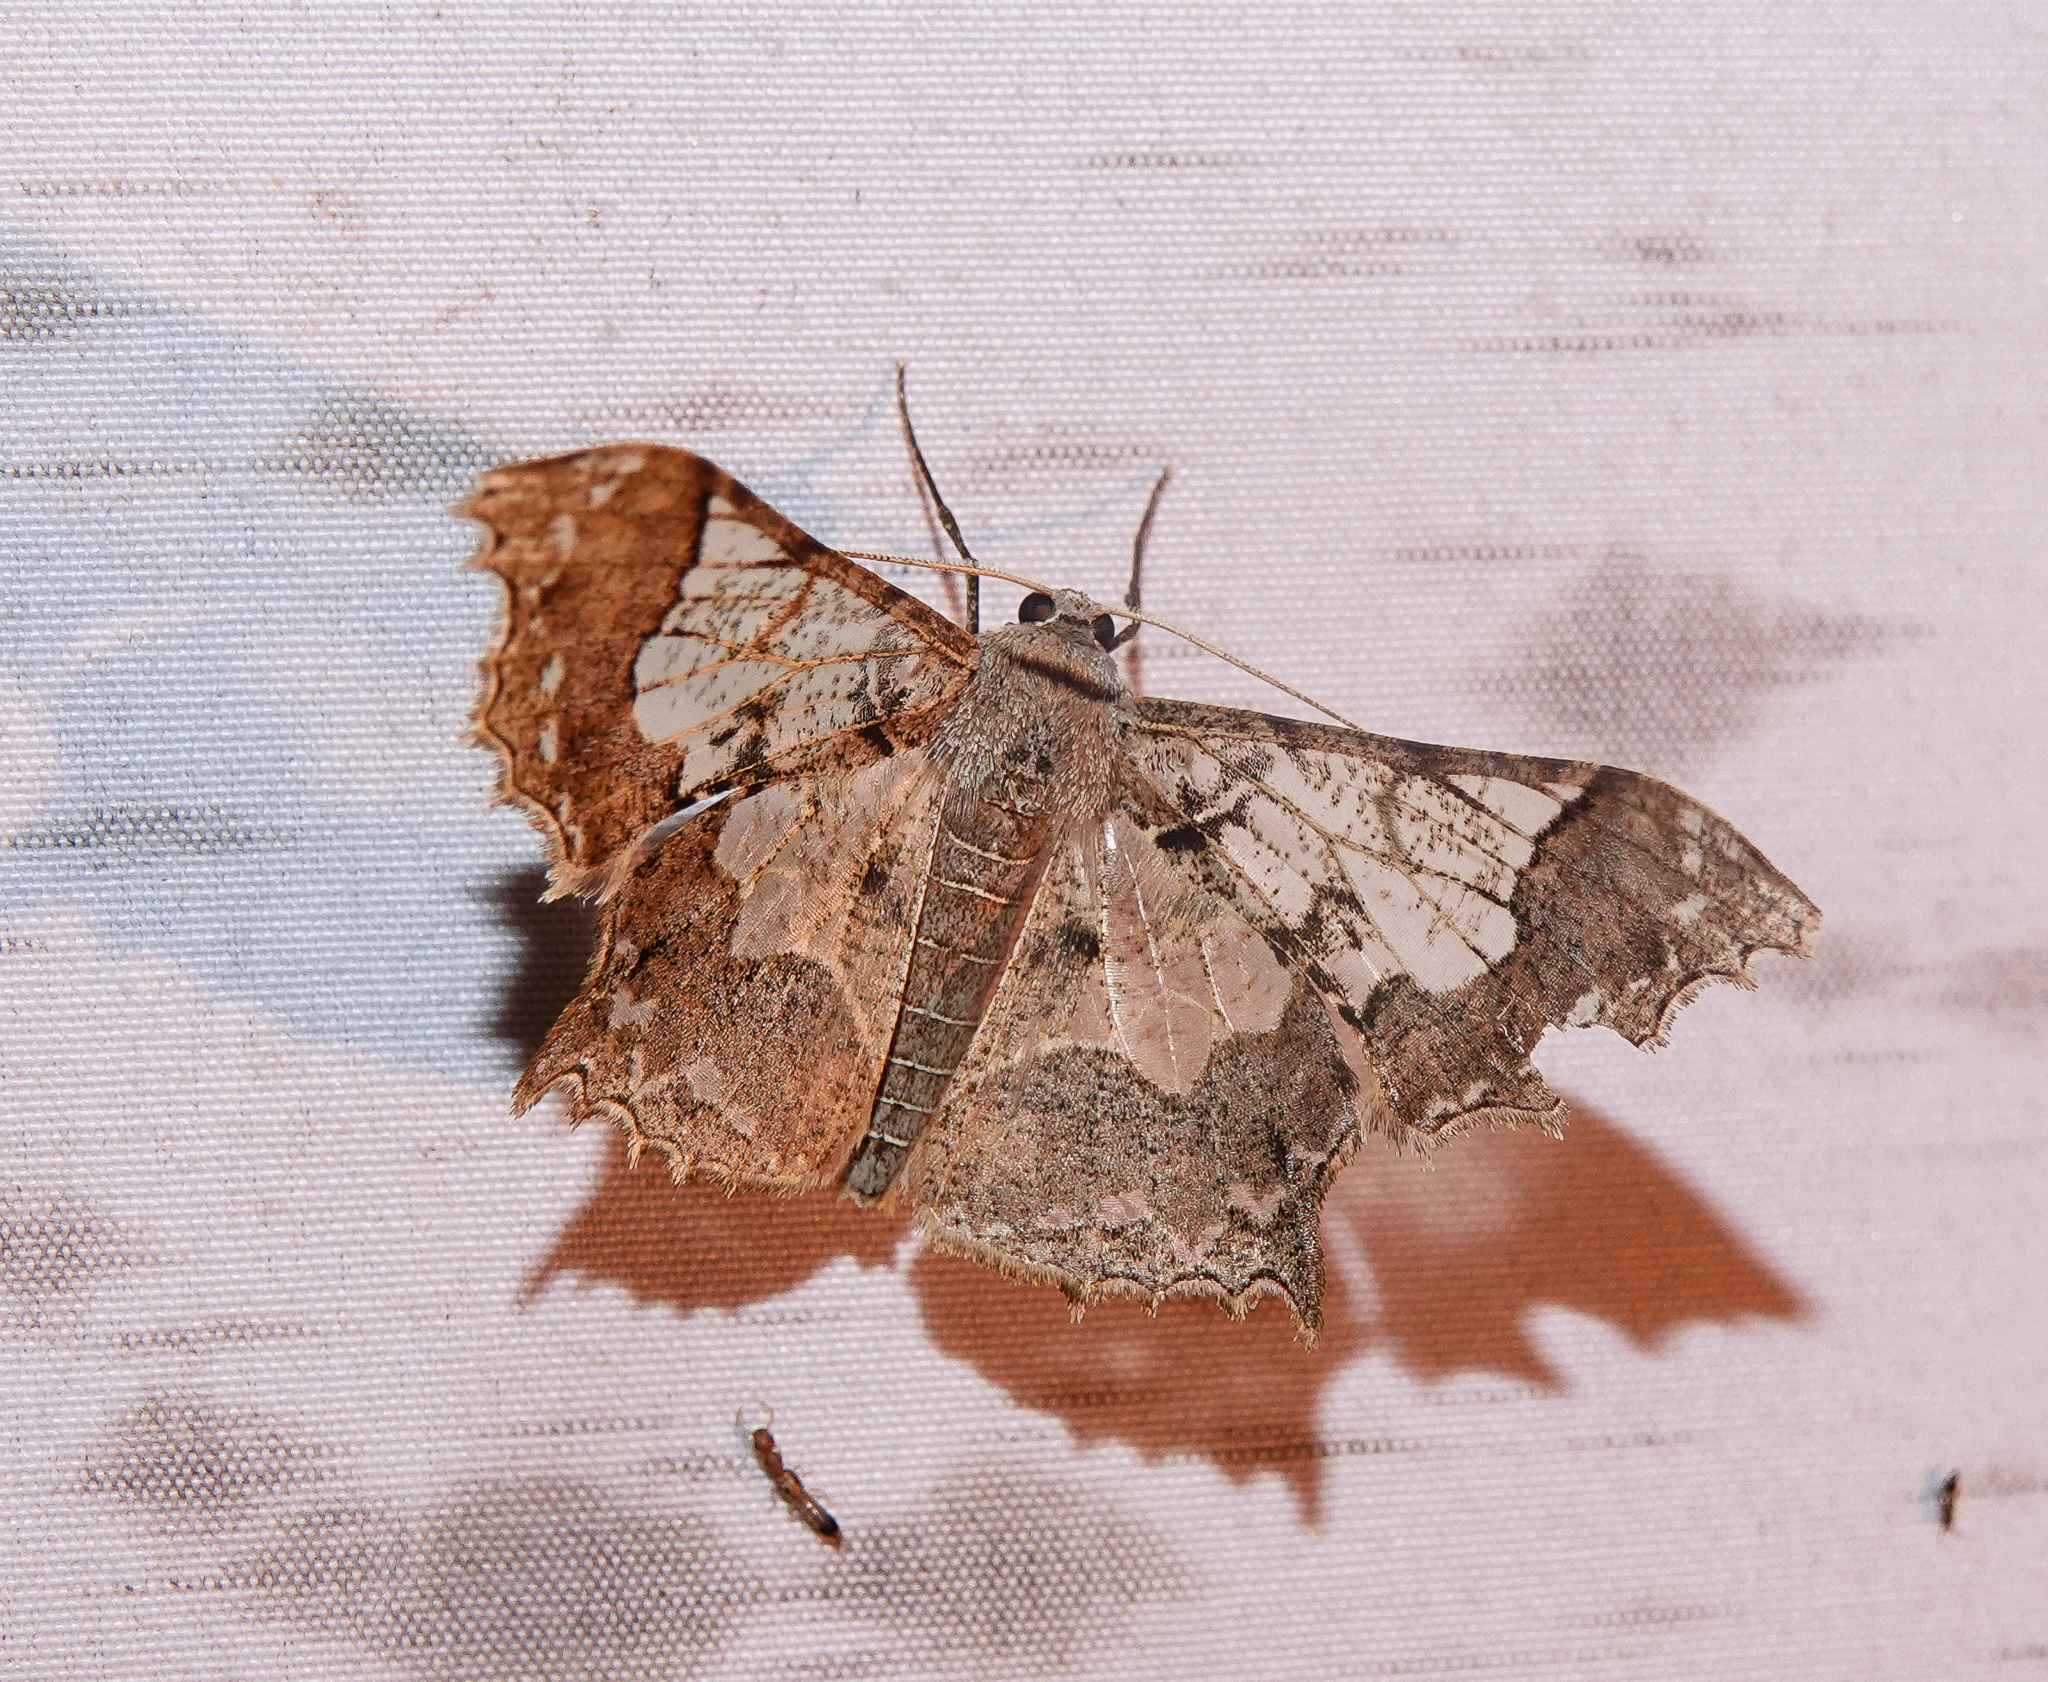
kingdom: Animalia
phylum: Arthropoda
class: Insecta
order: Lepidoptera
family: Geometridae
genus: Krananda
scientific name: Krananda semihyalina
